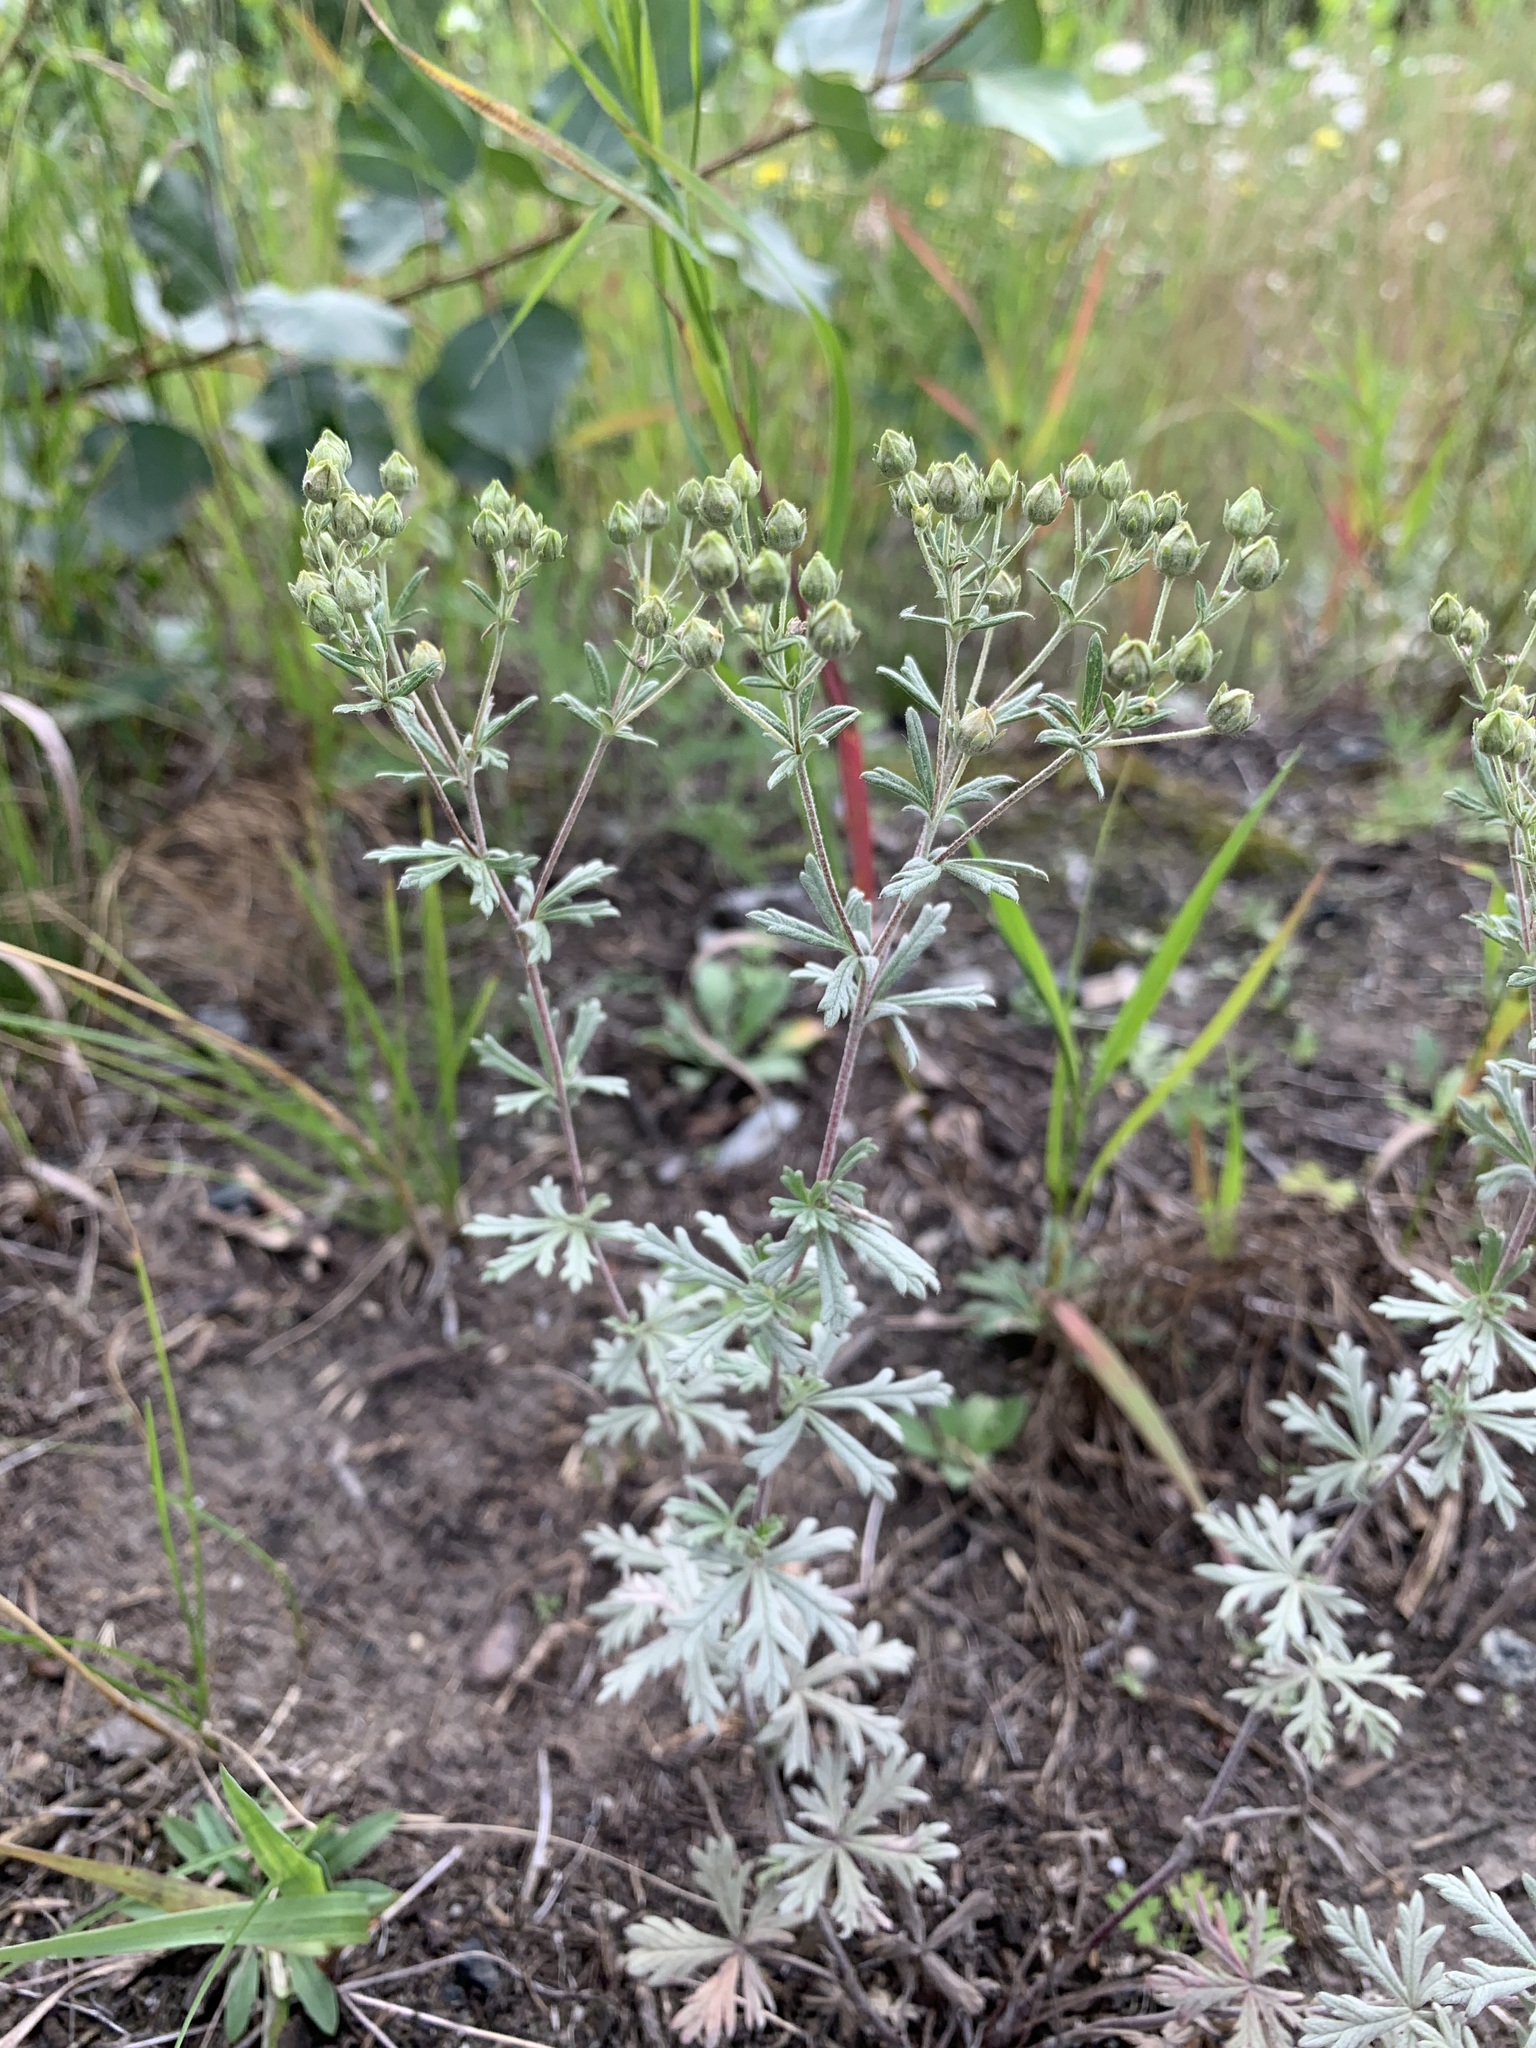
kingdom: Plantae
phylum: Tracheophyta
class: Magnoliopsida
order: Rosales
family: Rosaceae
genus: Potentilla
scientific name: Potentilla argentea
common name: Hoary cinquefoil
